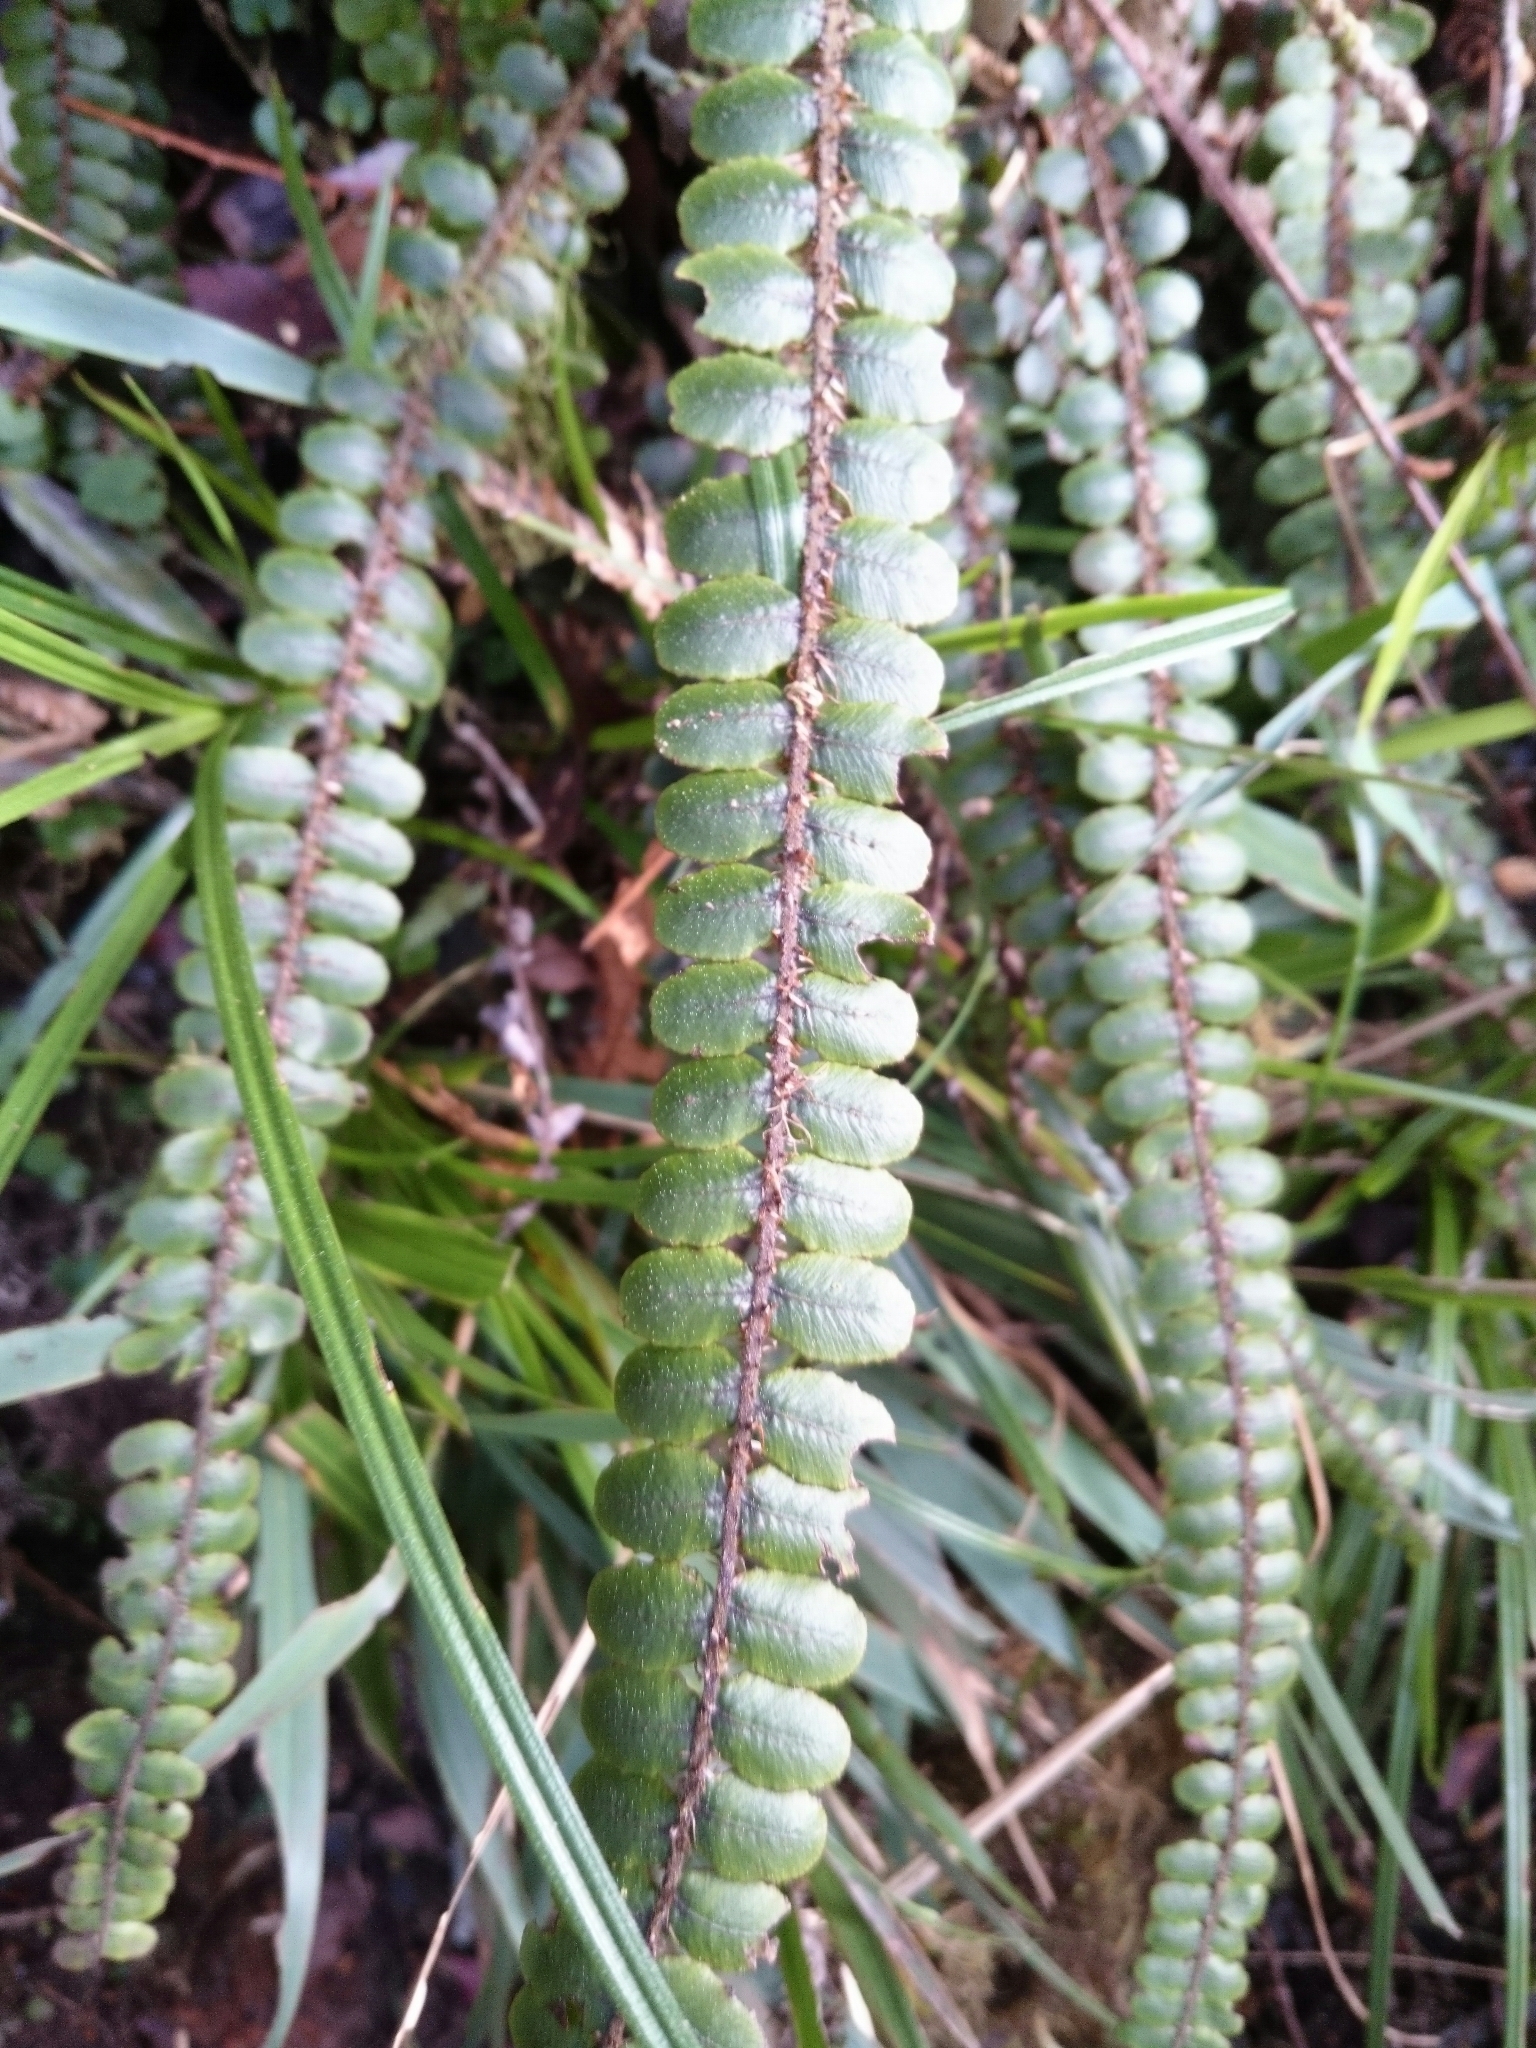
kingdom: Plantae
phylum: Tracheophyta
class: Polypodiopsida
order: Polypodiales
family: Blechnaceae
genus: Cranfillia
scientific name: Cranfillia fluviatilis
